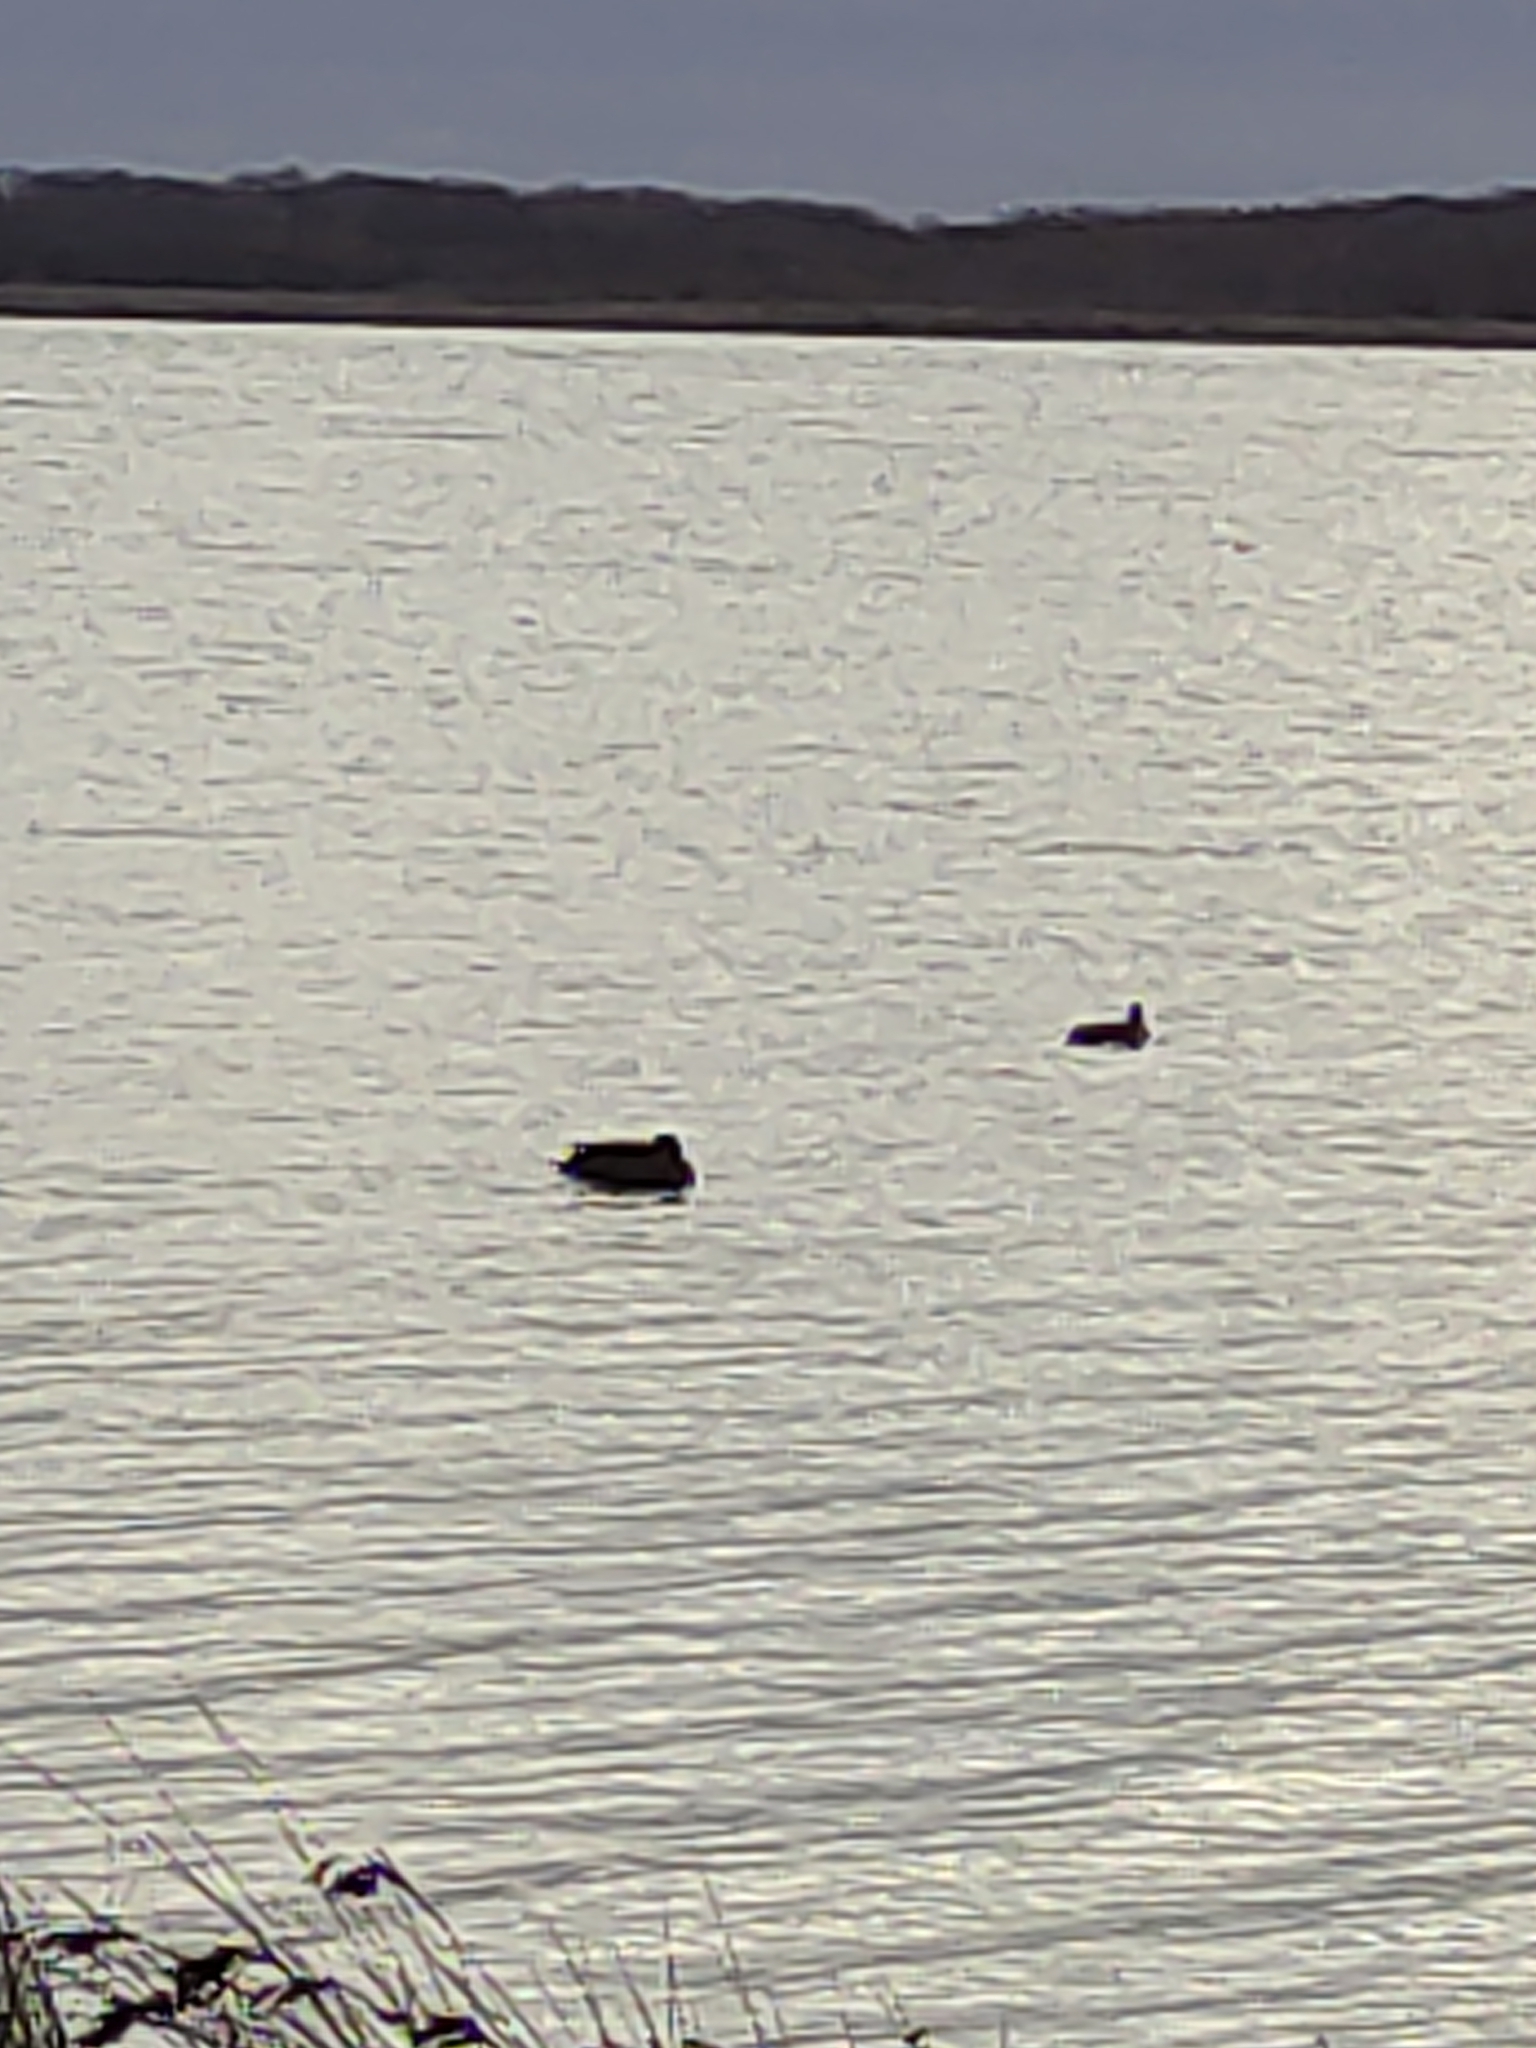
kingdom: Animalia
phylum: Chordata
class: Aves
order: Anseriformes
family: Anatidae
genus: Aythya
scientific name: Aythya novaeseelandiae
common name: New zealand scaup
